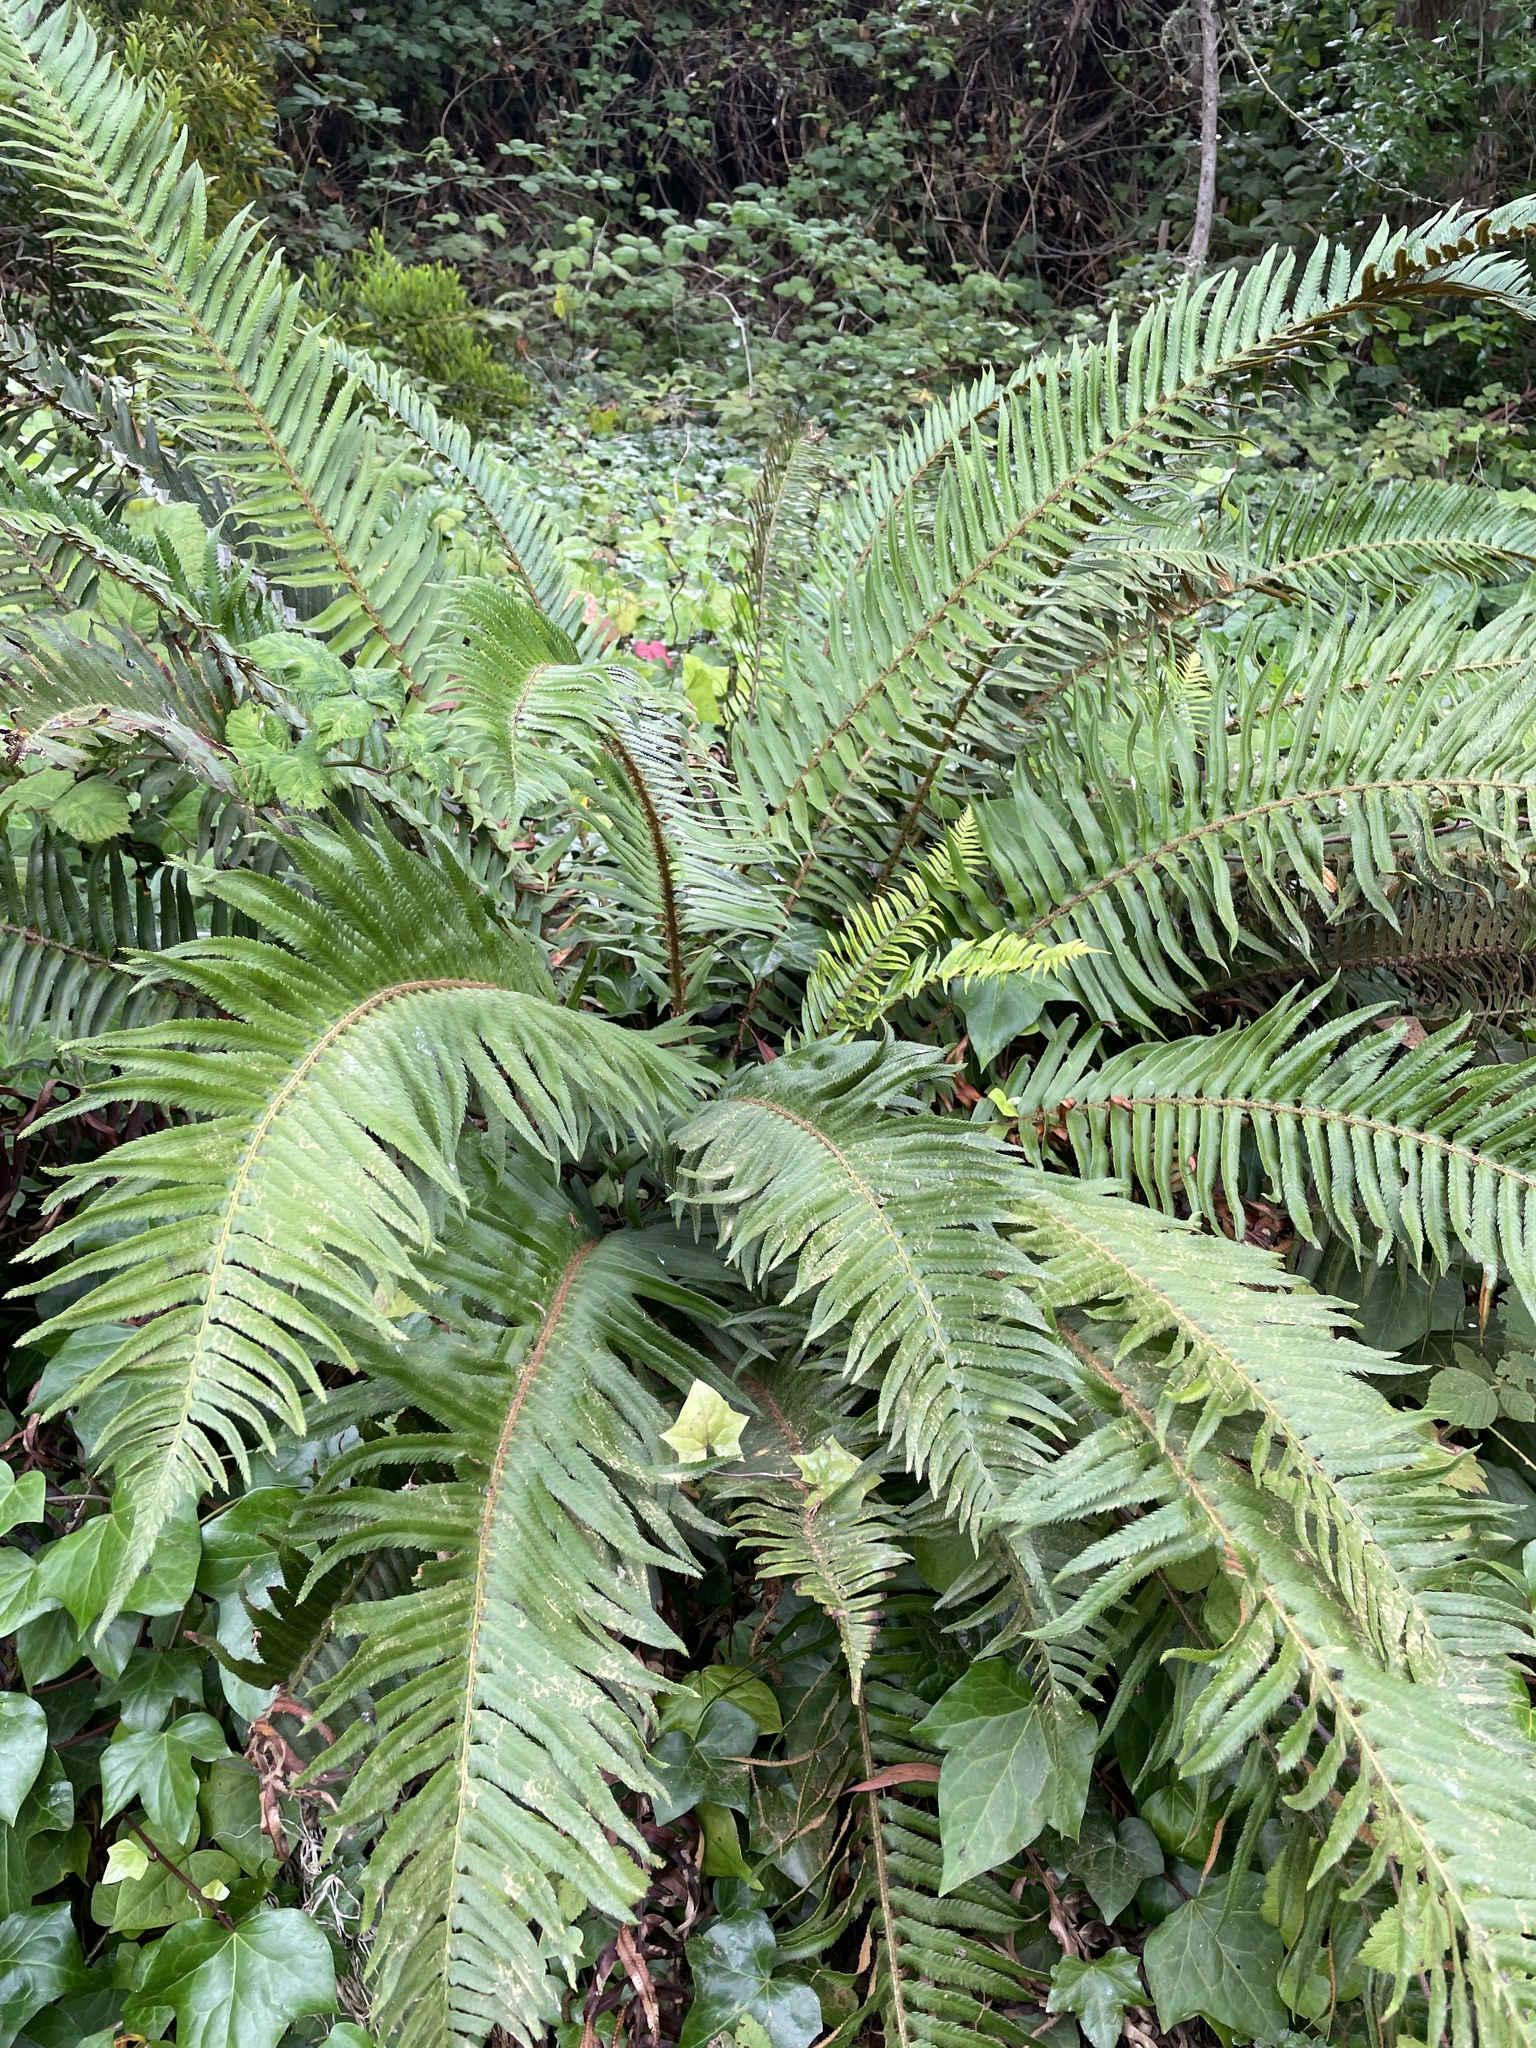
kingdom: Plantae
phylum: Tracheophyta
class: Polypodiopsida
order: Polypodiales
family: Dryopteridaceae
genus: Polystichum
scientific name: Polystichum munitum
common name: Western sword-fern
